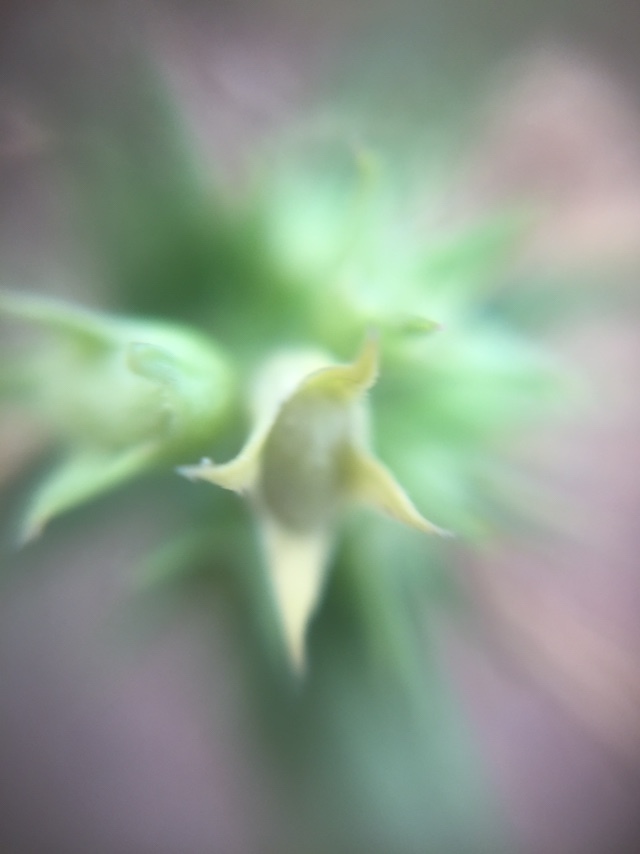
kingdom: Plantae
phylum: Tracheophyta
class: Magnoliopsida
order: Caryophyllales
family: Molluginaceae
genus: Paramollugo
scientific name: Paramollugo nudicaulis
